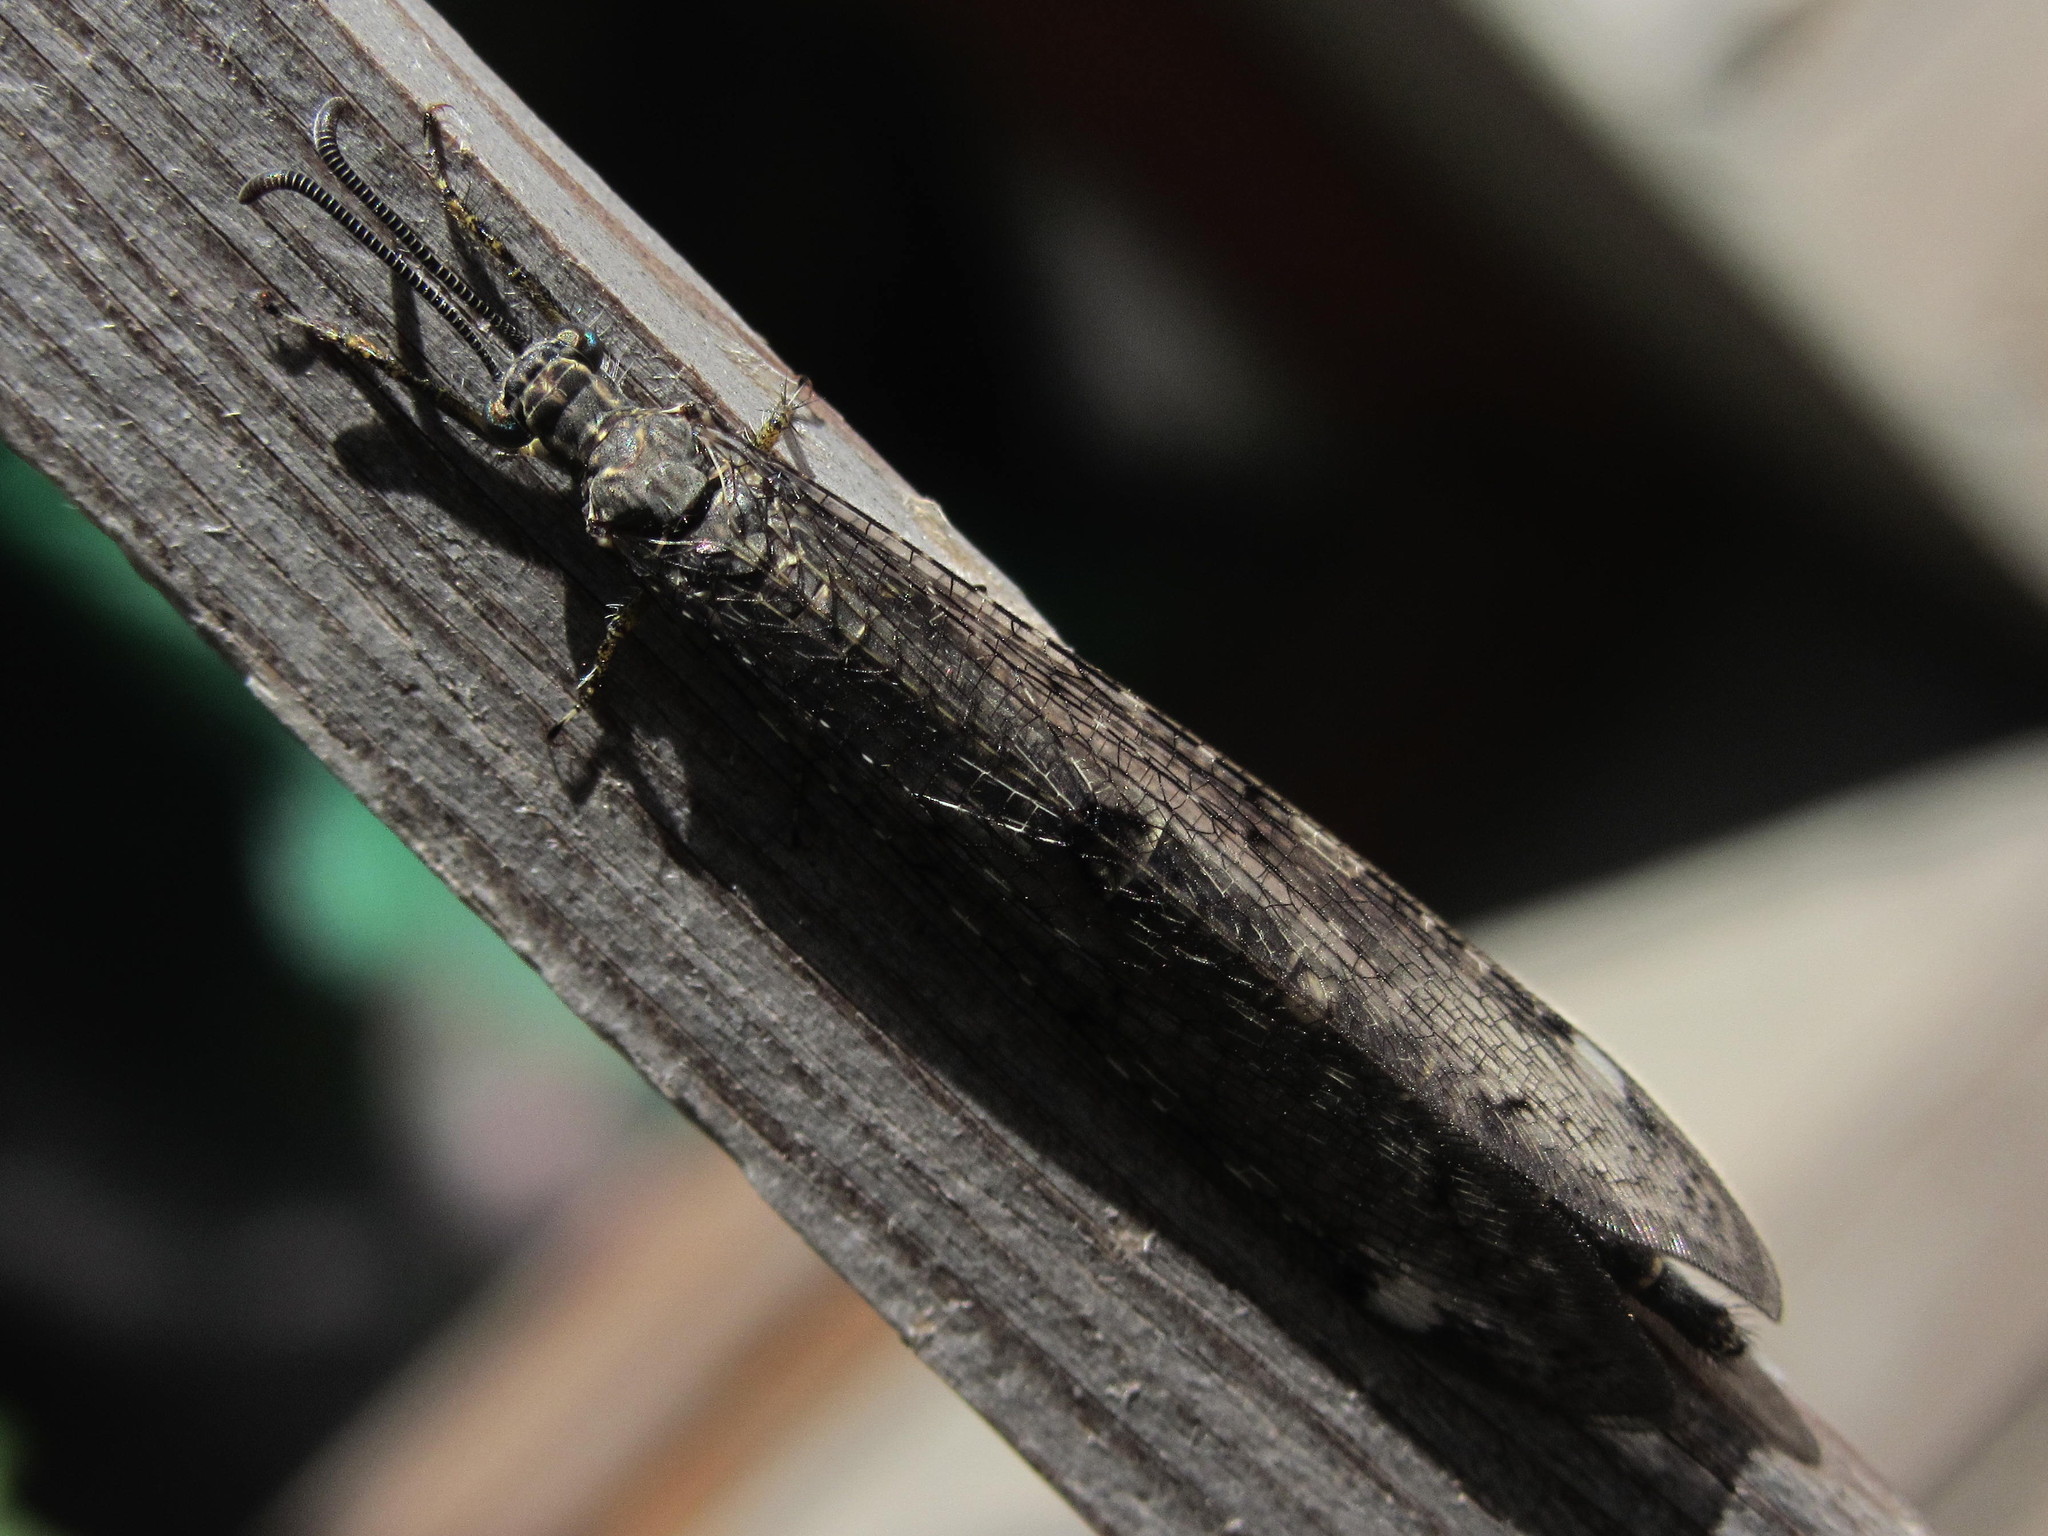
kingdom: Animalia
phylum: Arthropoda
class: Insecta
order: Neuroptera
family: Myrmeleontidae
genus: Distoleon
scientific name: Distoleon tetragrammicus
